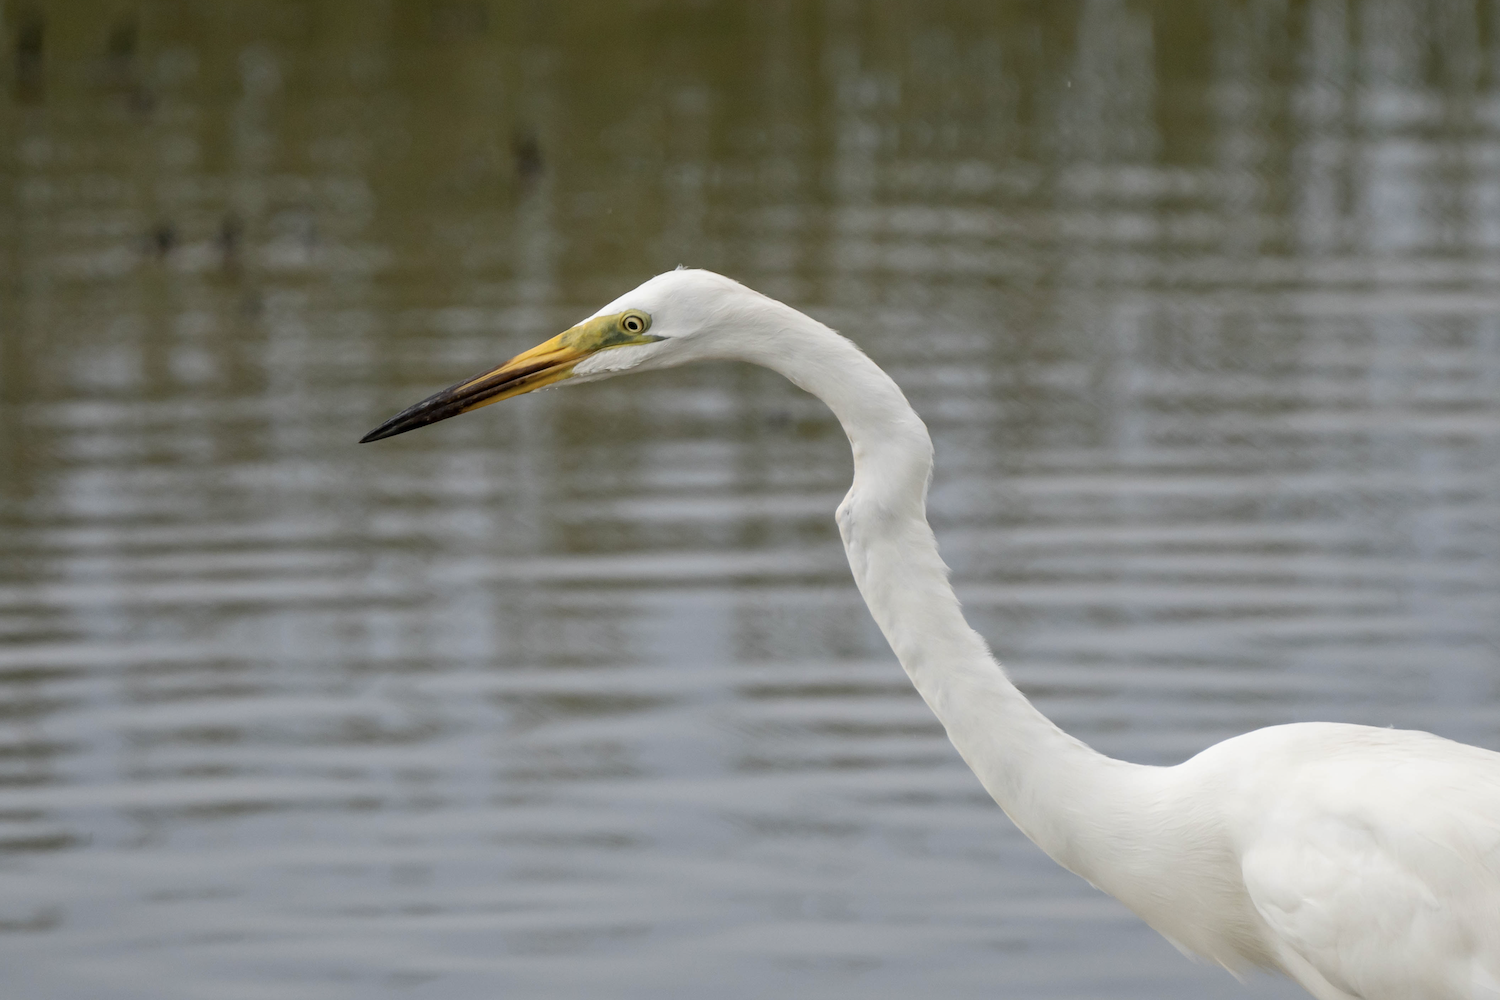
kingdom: Animalia
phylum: Chordata
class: Aves
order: Pelecaniformes
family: Ardeidae
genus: Ardea
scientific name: Ardea alba
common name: Great egret
